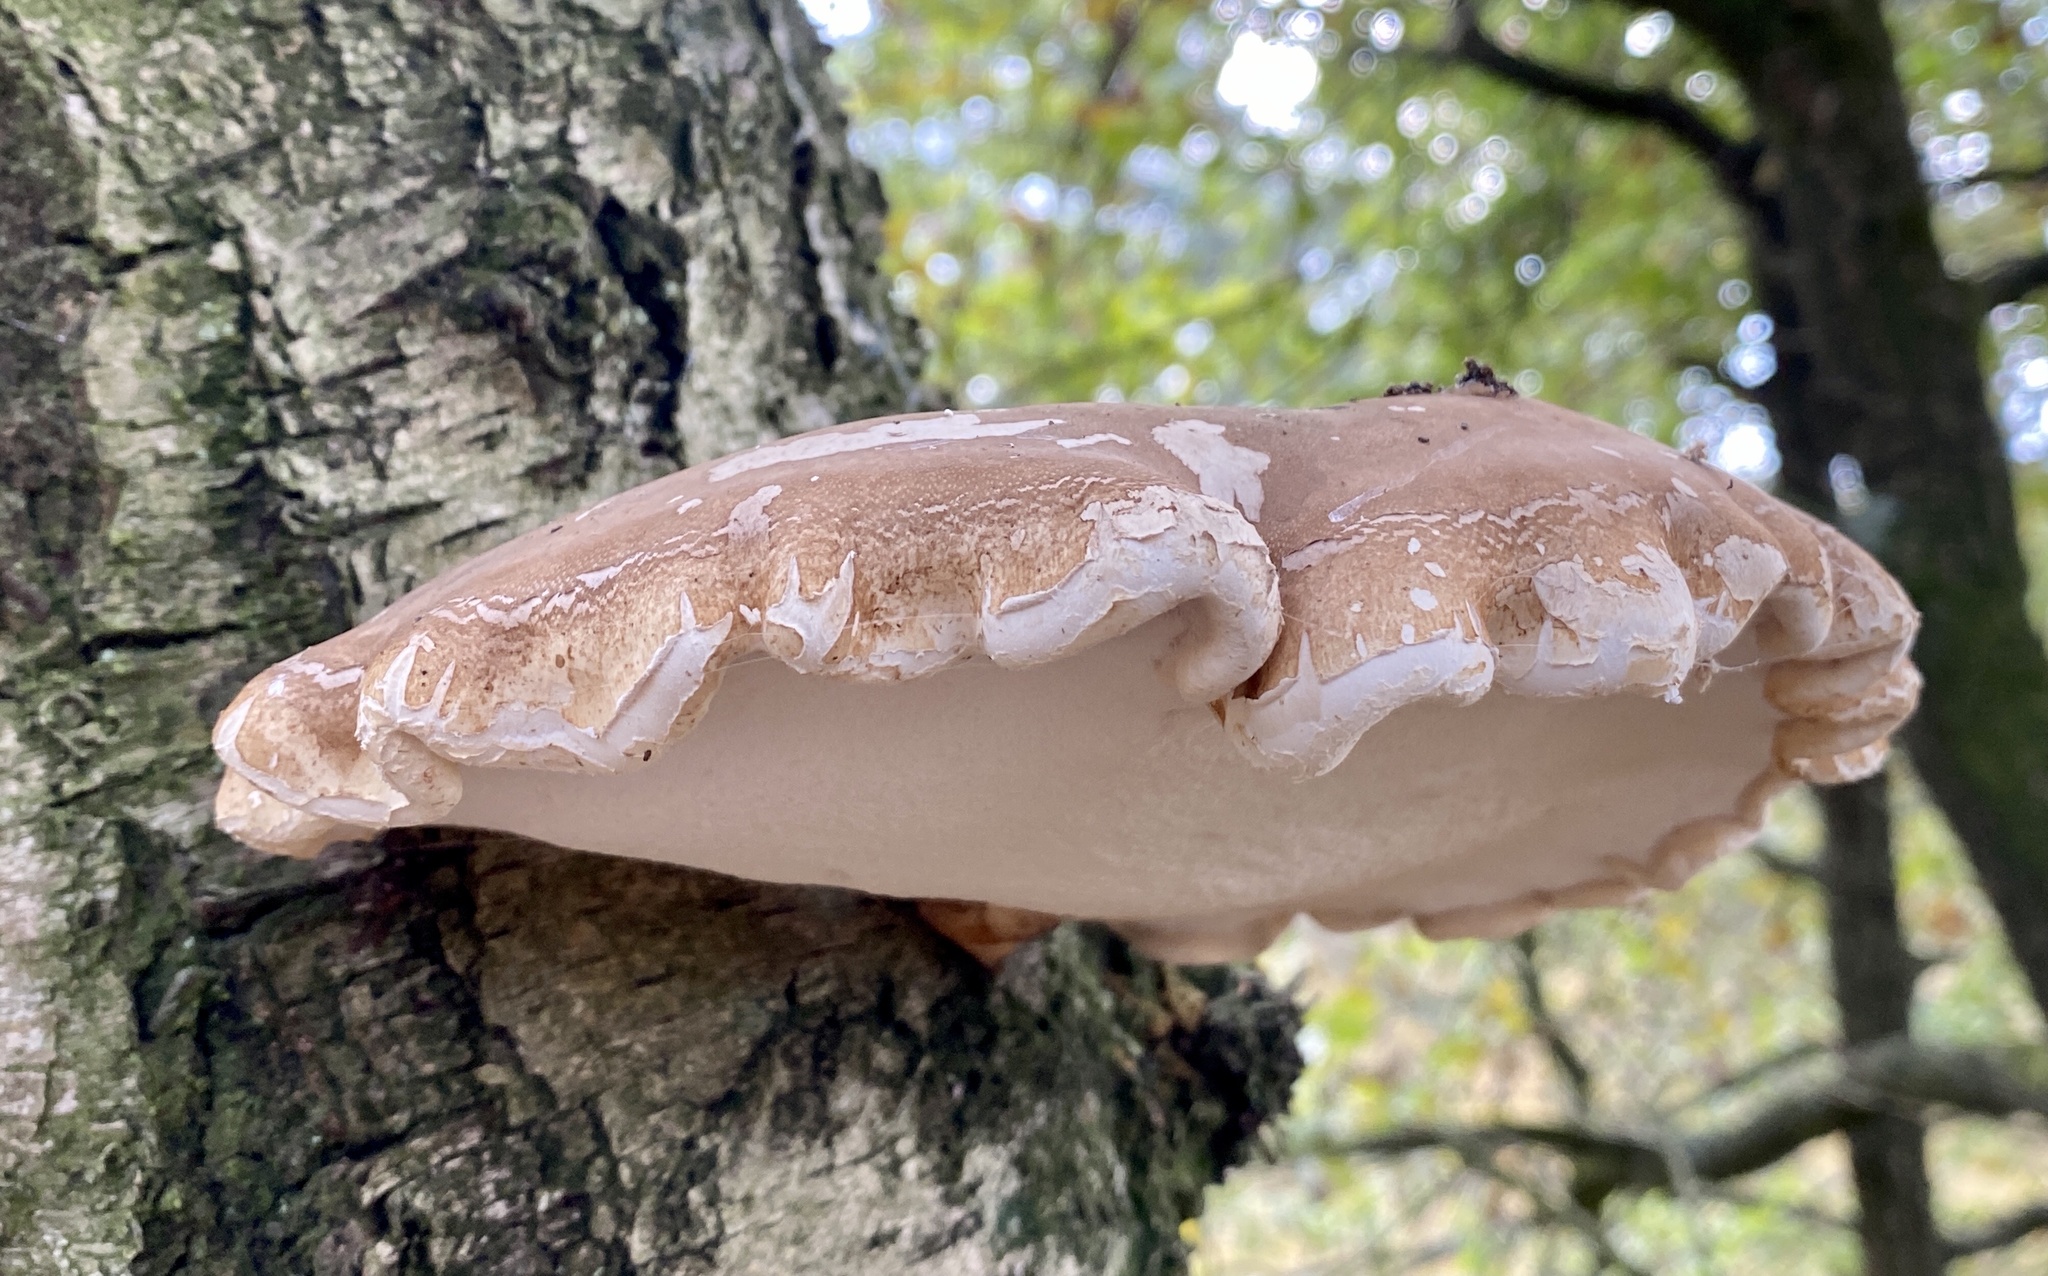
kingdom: Fungi
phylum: Basidiomycota
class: Agaricomycetes
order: Polyporales
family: Fomitopsidaceae
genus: Fomitopsis
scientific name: Fomitopsis betulina
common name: Birch polypore
